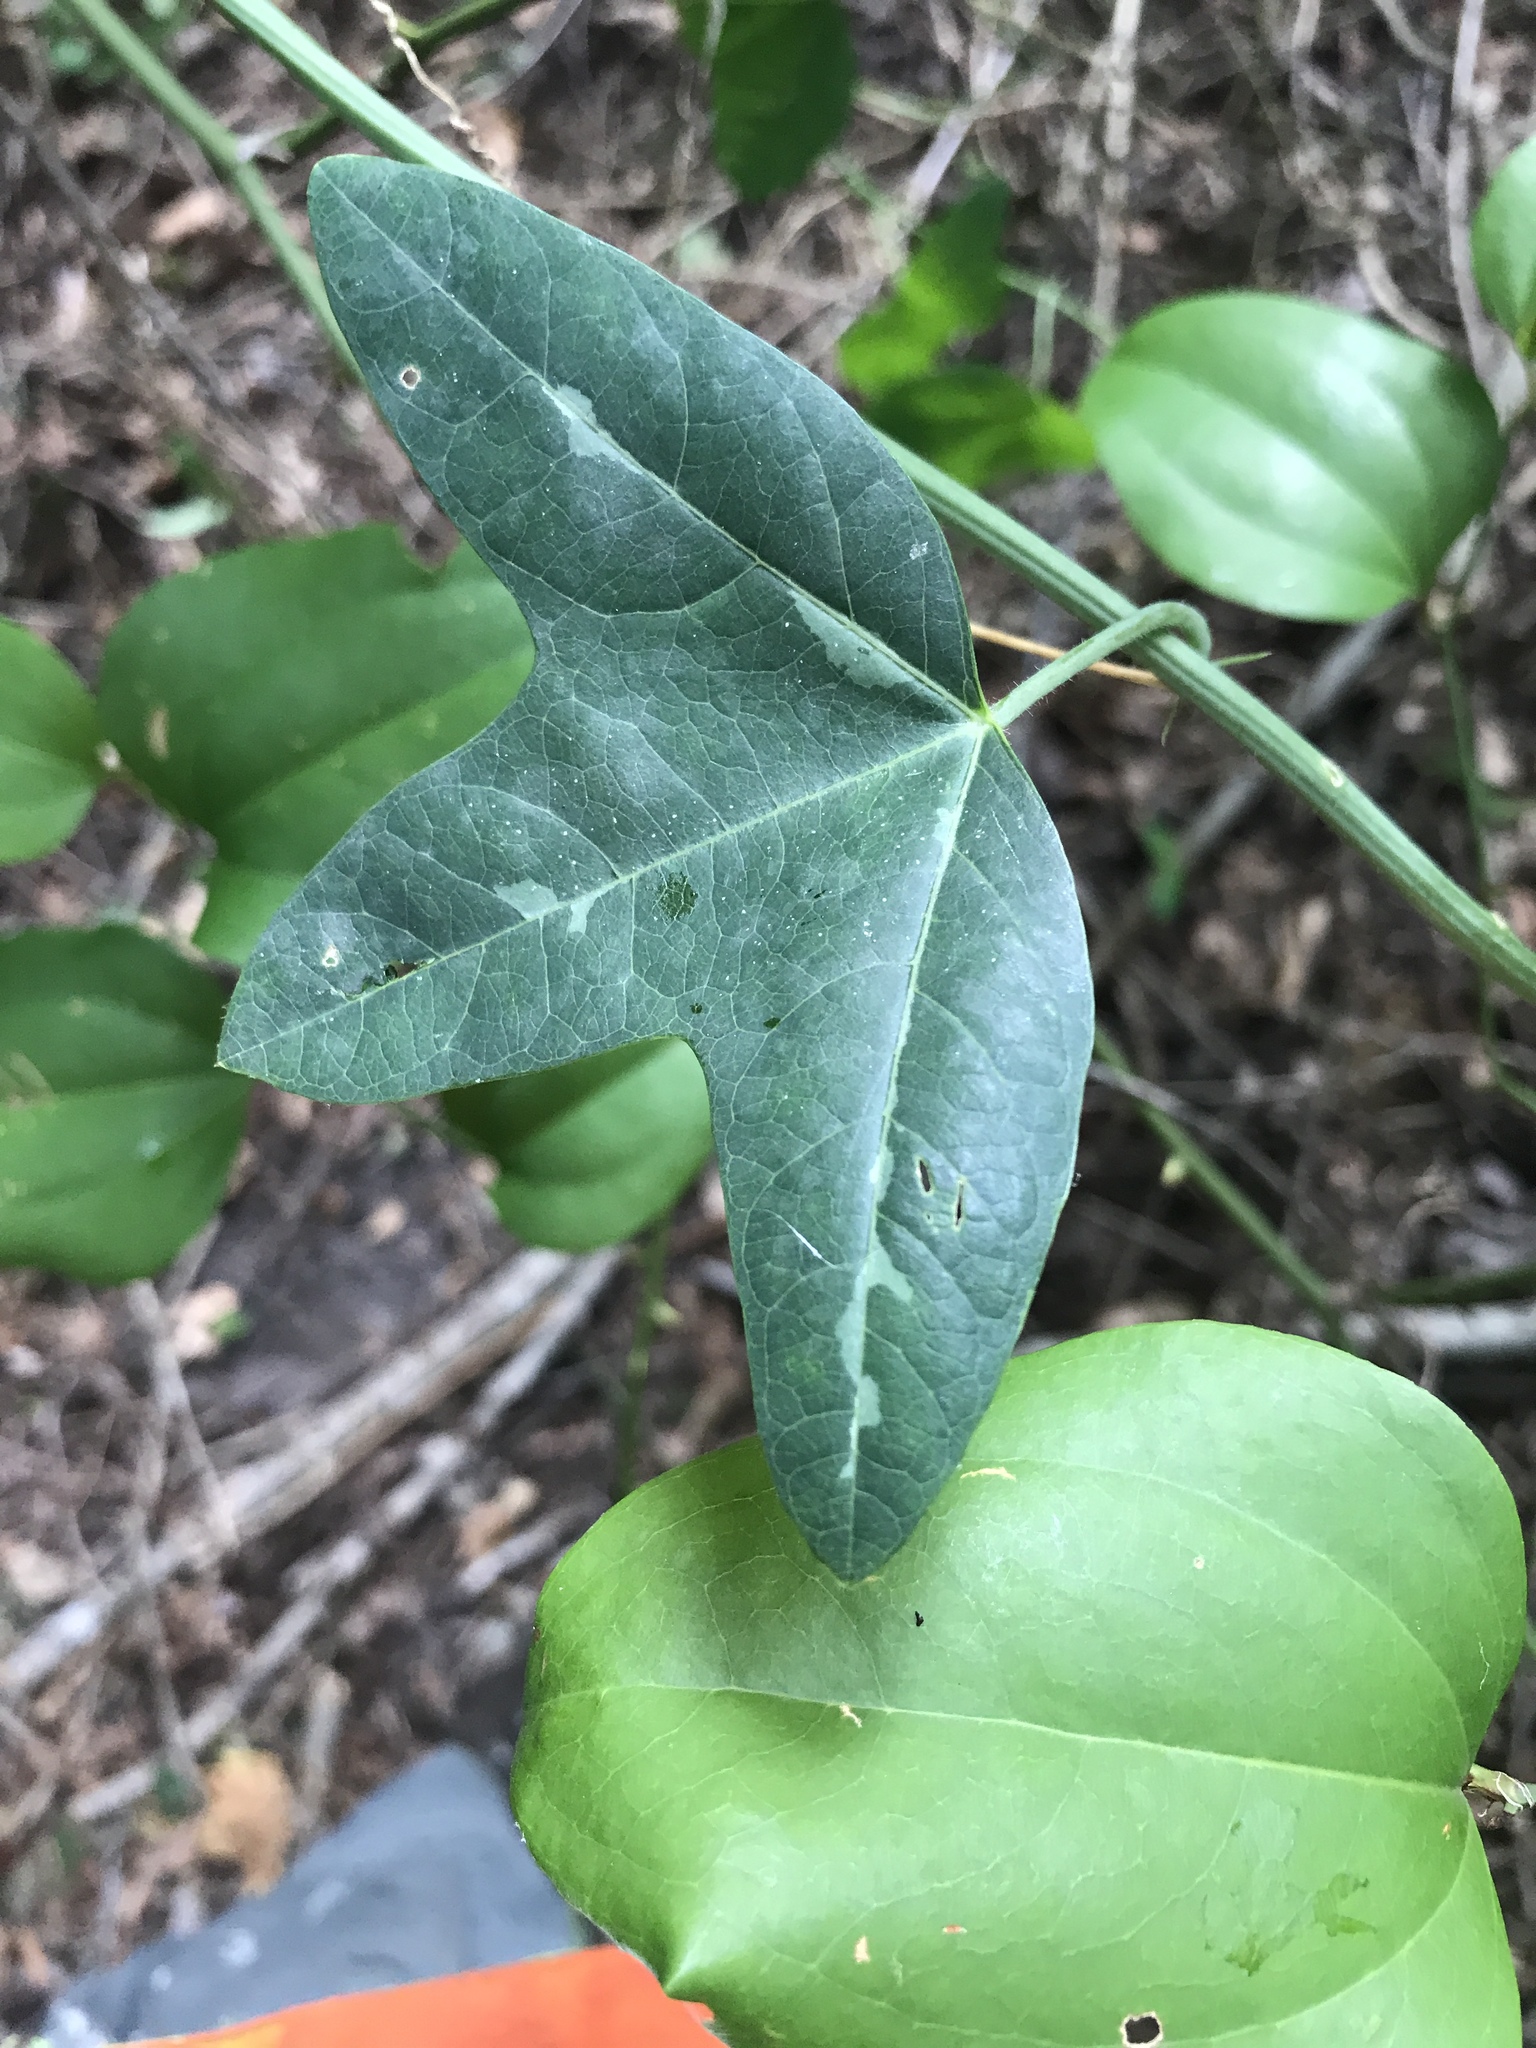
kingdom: Plantae
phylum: Tracheophyta
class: Magnoliopsida
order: Malpighiales
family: Passifloraceae
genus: Passiflora
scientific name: Passiflora lutea
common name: Yellow passionflower
